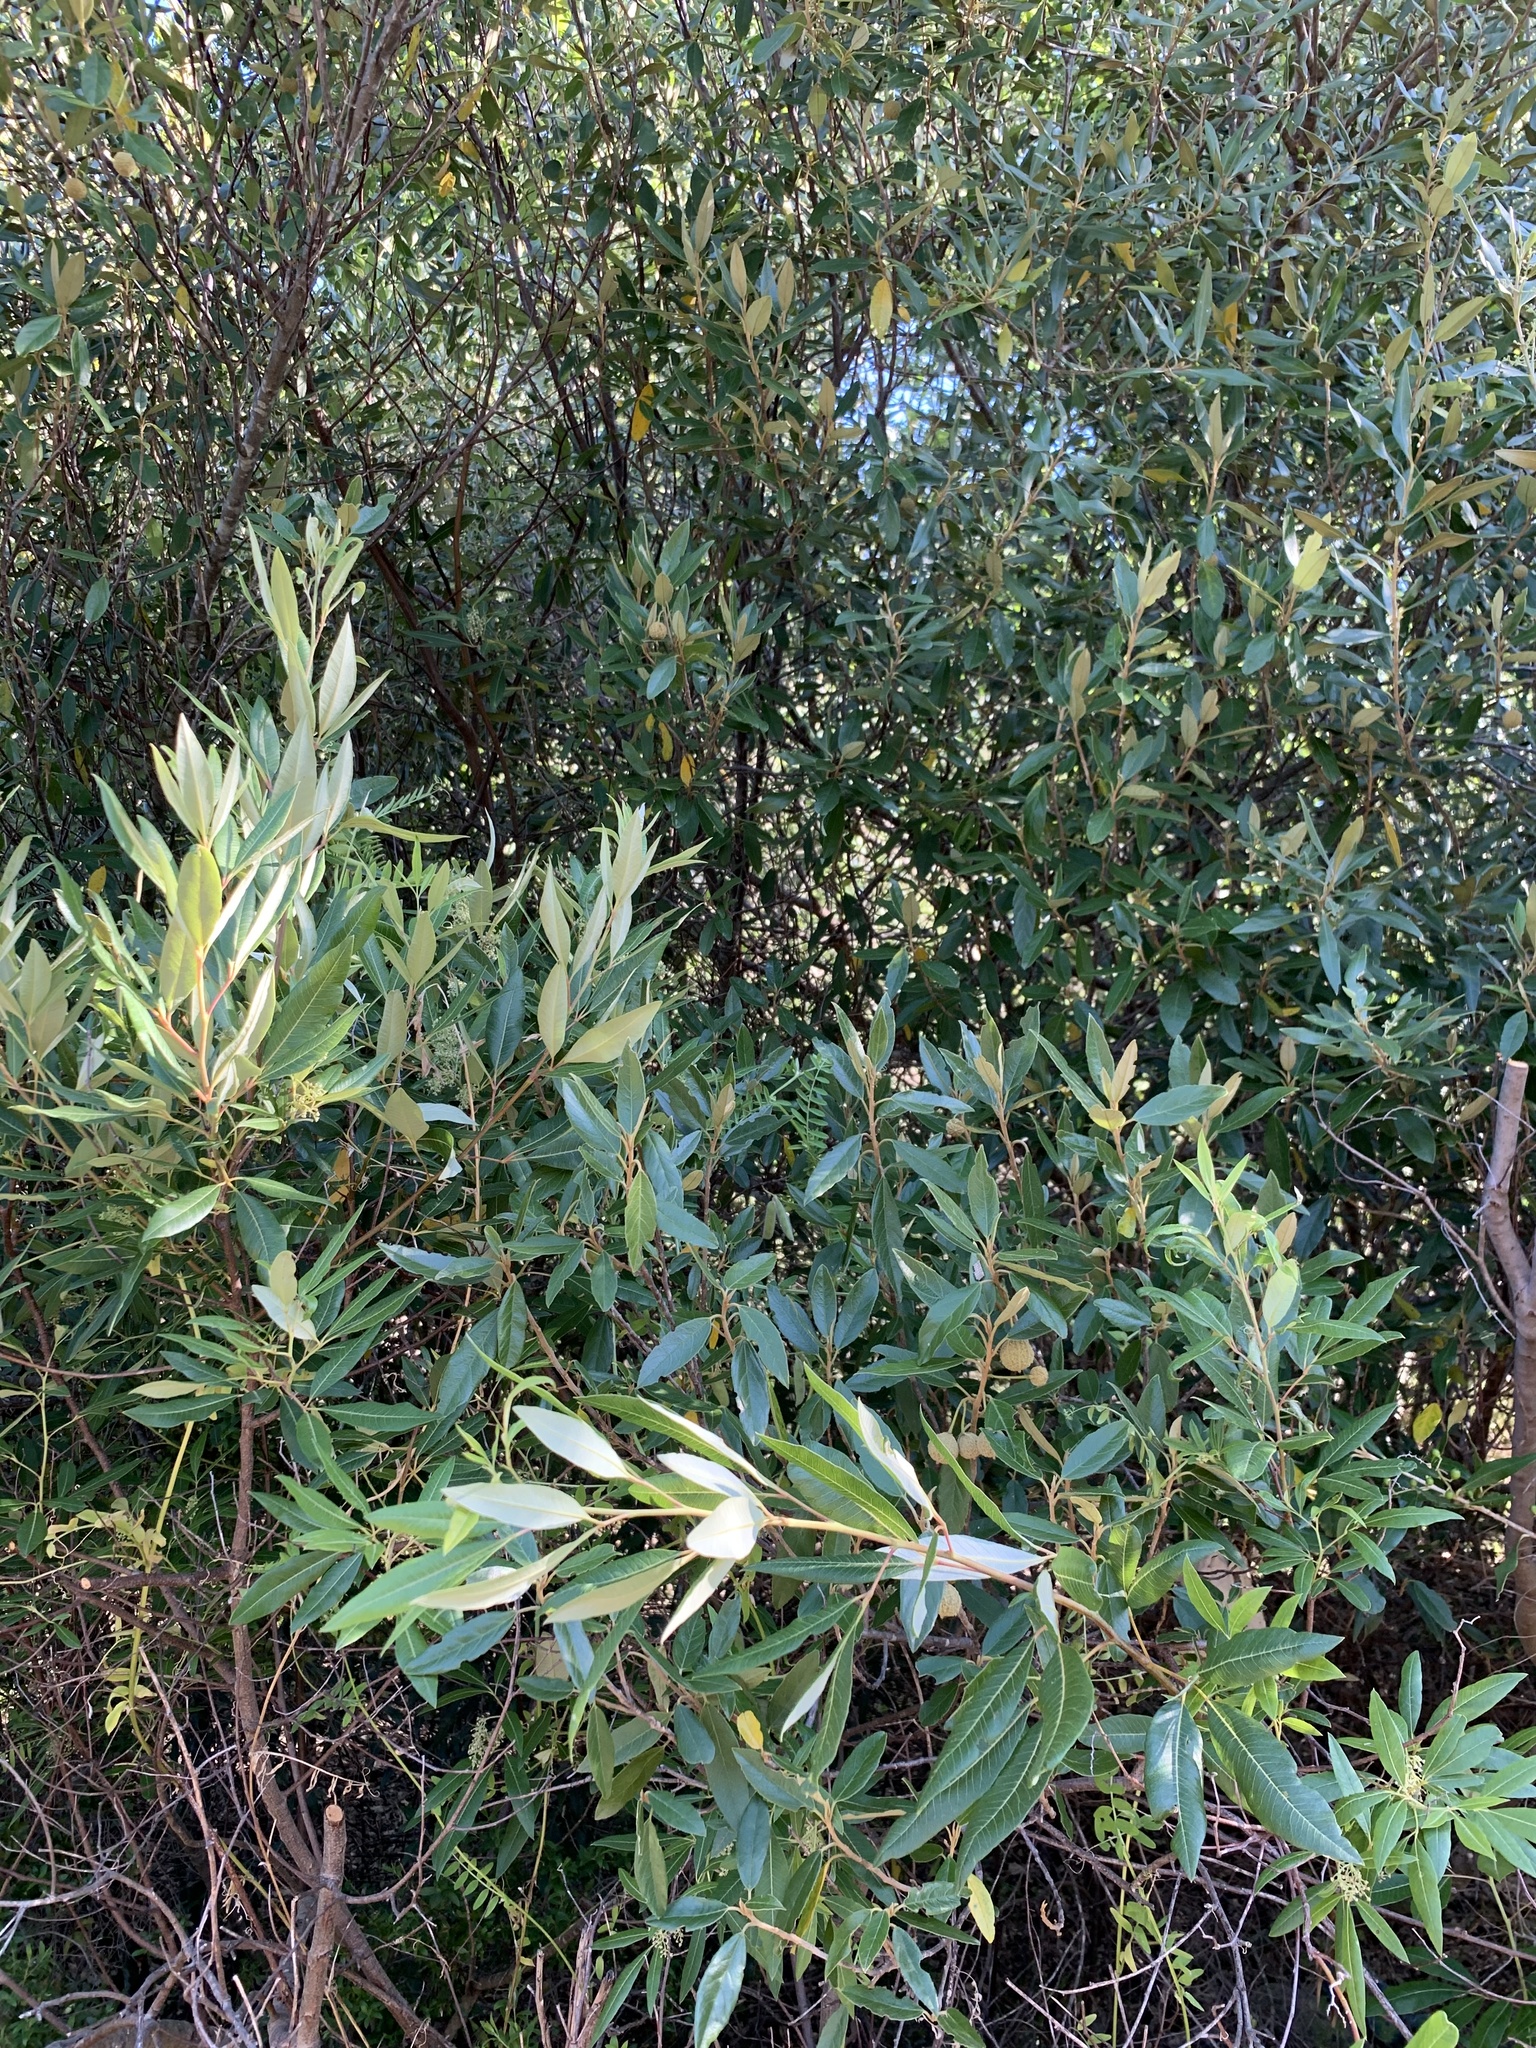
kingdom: Plantae
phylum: Tracheophyta
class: Magnoliopsida
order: Malpighiales
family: Achariaceae
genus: Kiggelaria
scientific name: Kiggelaria africana
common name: Wild peach
